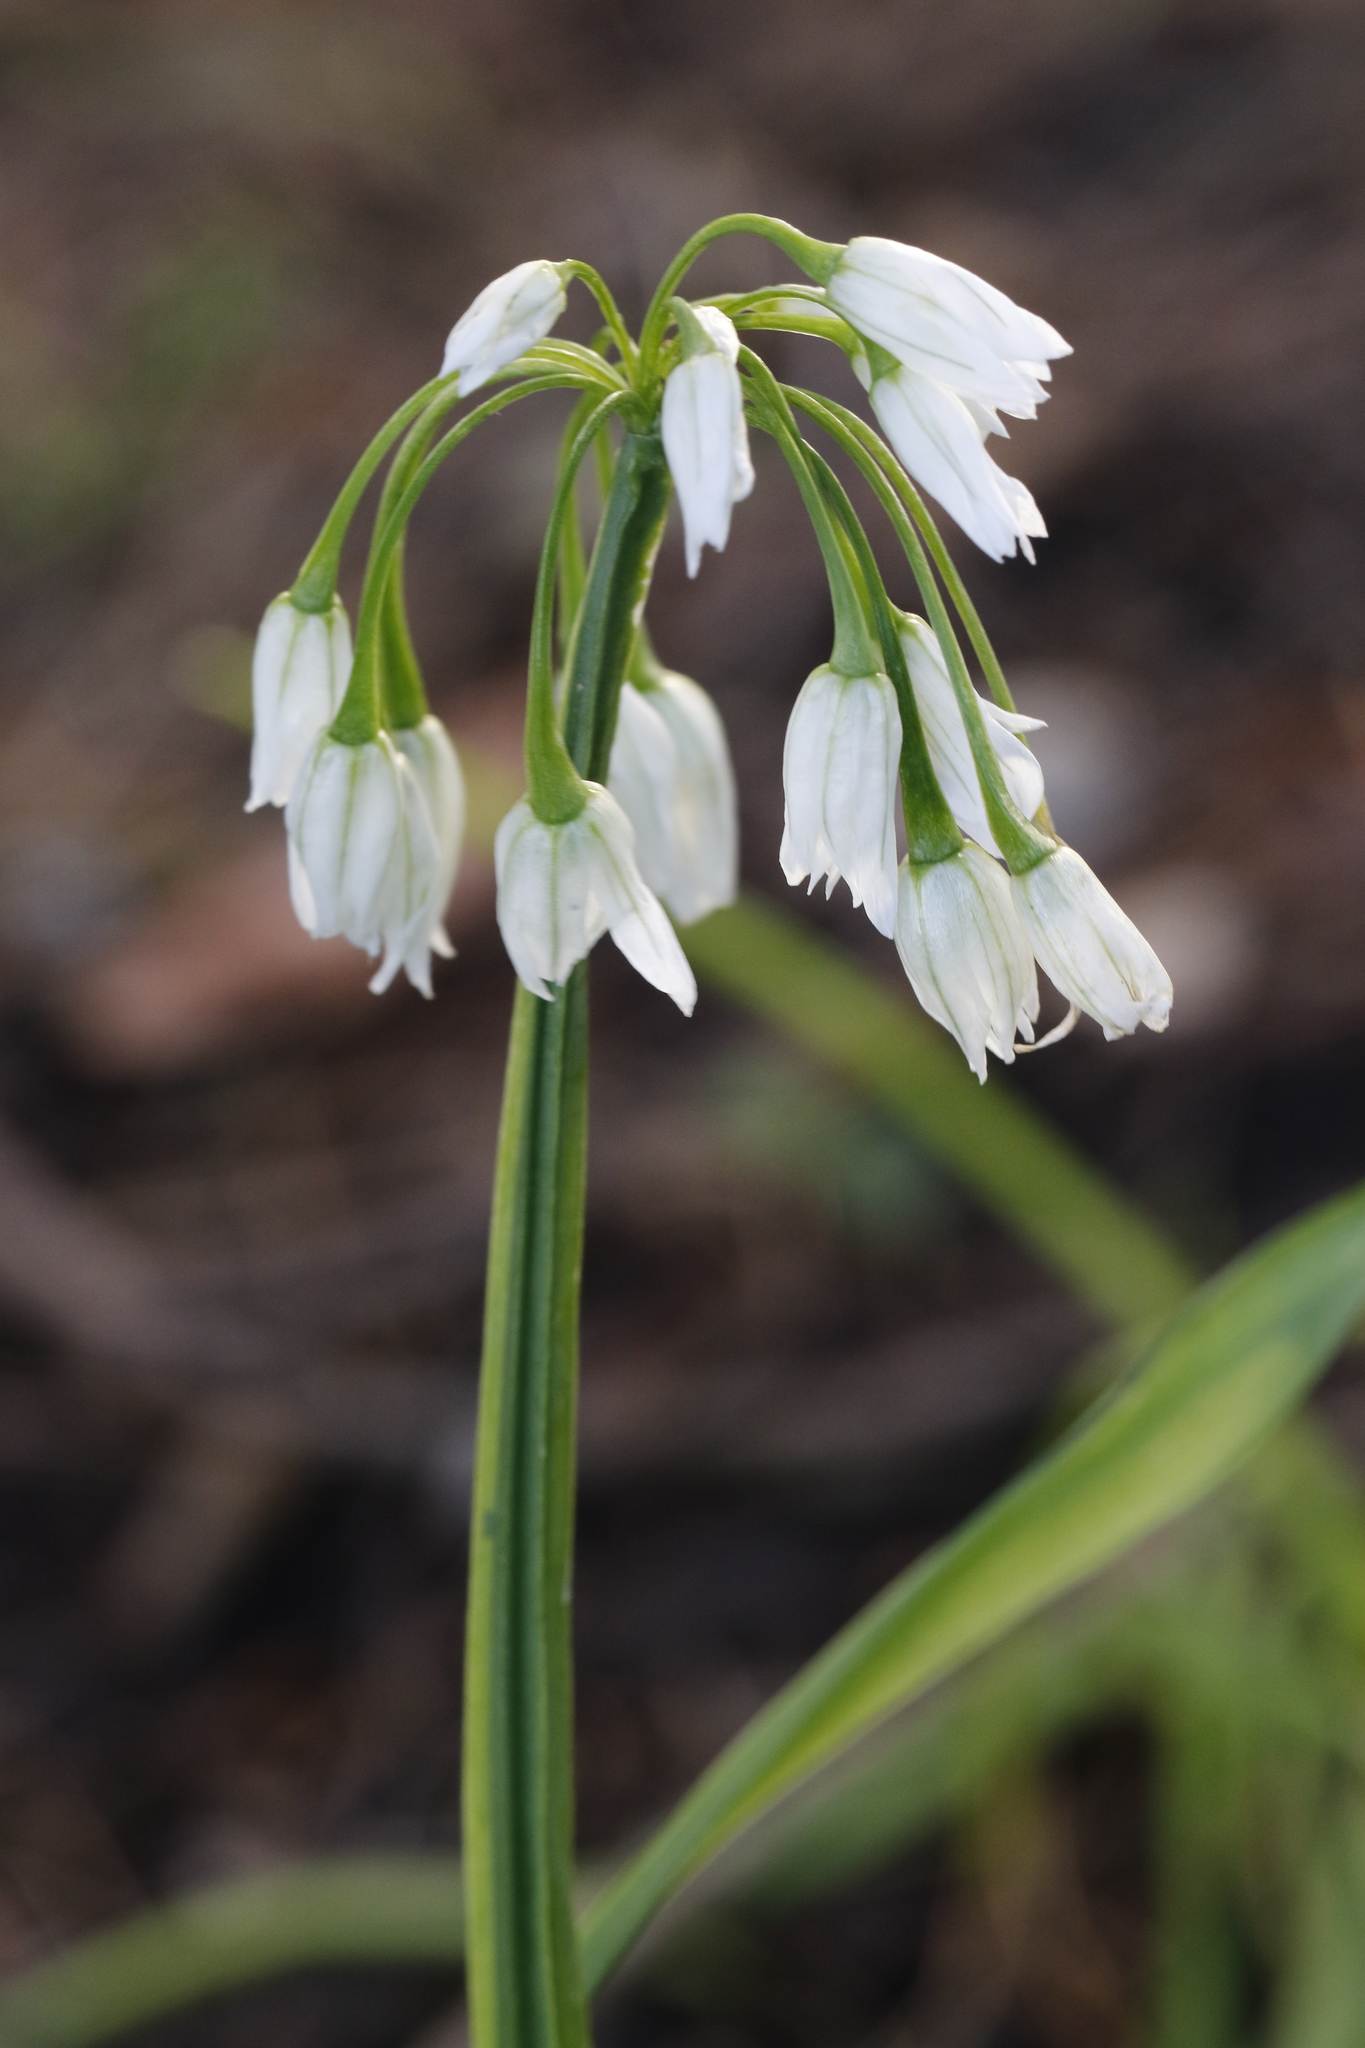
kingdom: Plantae
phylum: Tracheophyta
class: Liliopsida
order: Asparagales
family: Amaryllidaceae
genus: Allium
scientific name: Allium triquetrum
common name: Three-cornered garlic
